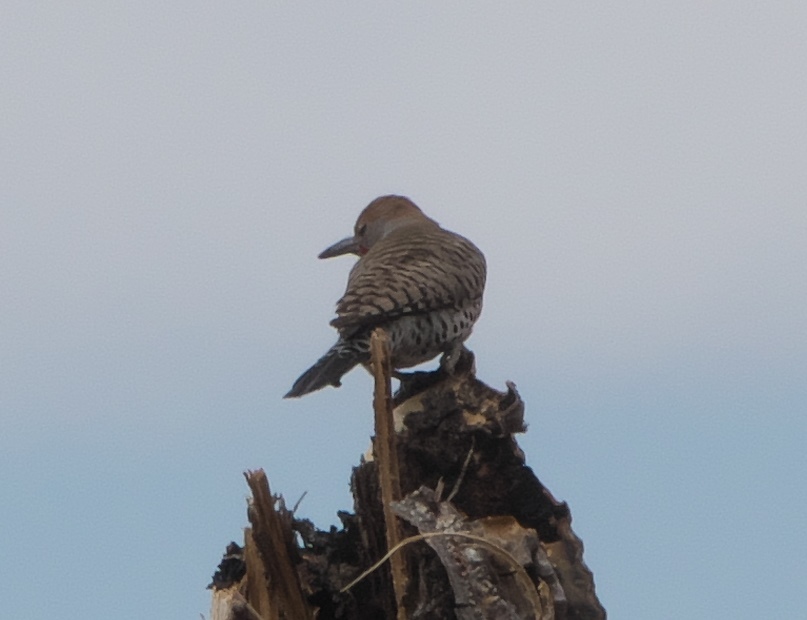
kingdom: Animalia
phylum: Chordata
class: Aves
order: Piciformes
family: Picidae
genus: Colaptes
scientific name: Colaptes chrysoides
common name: Gilded flicker
